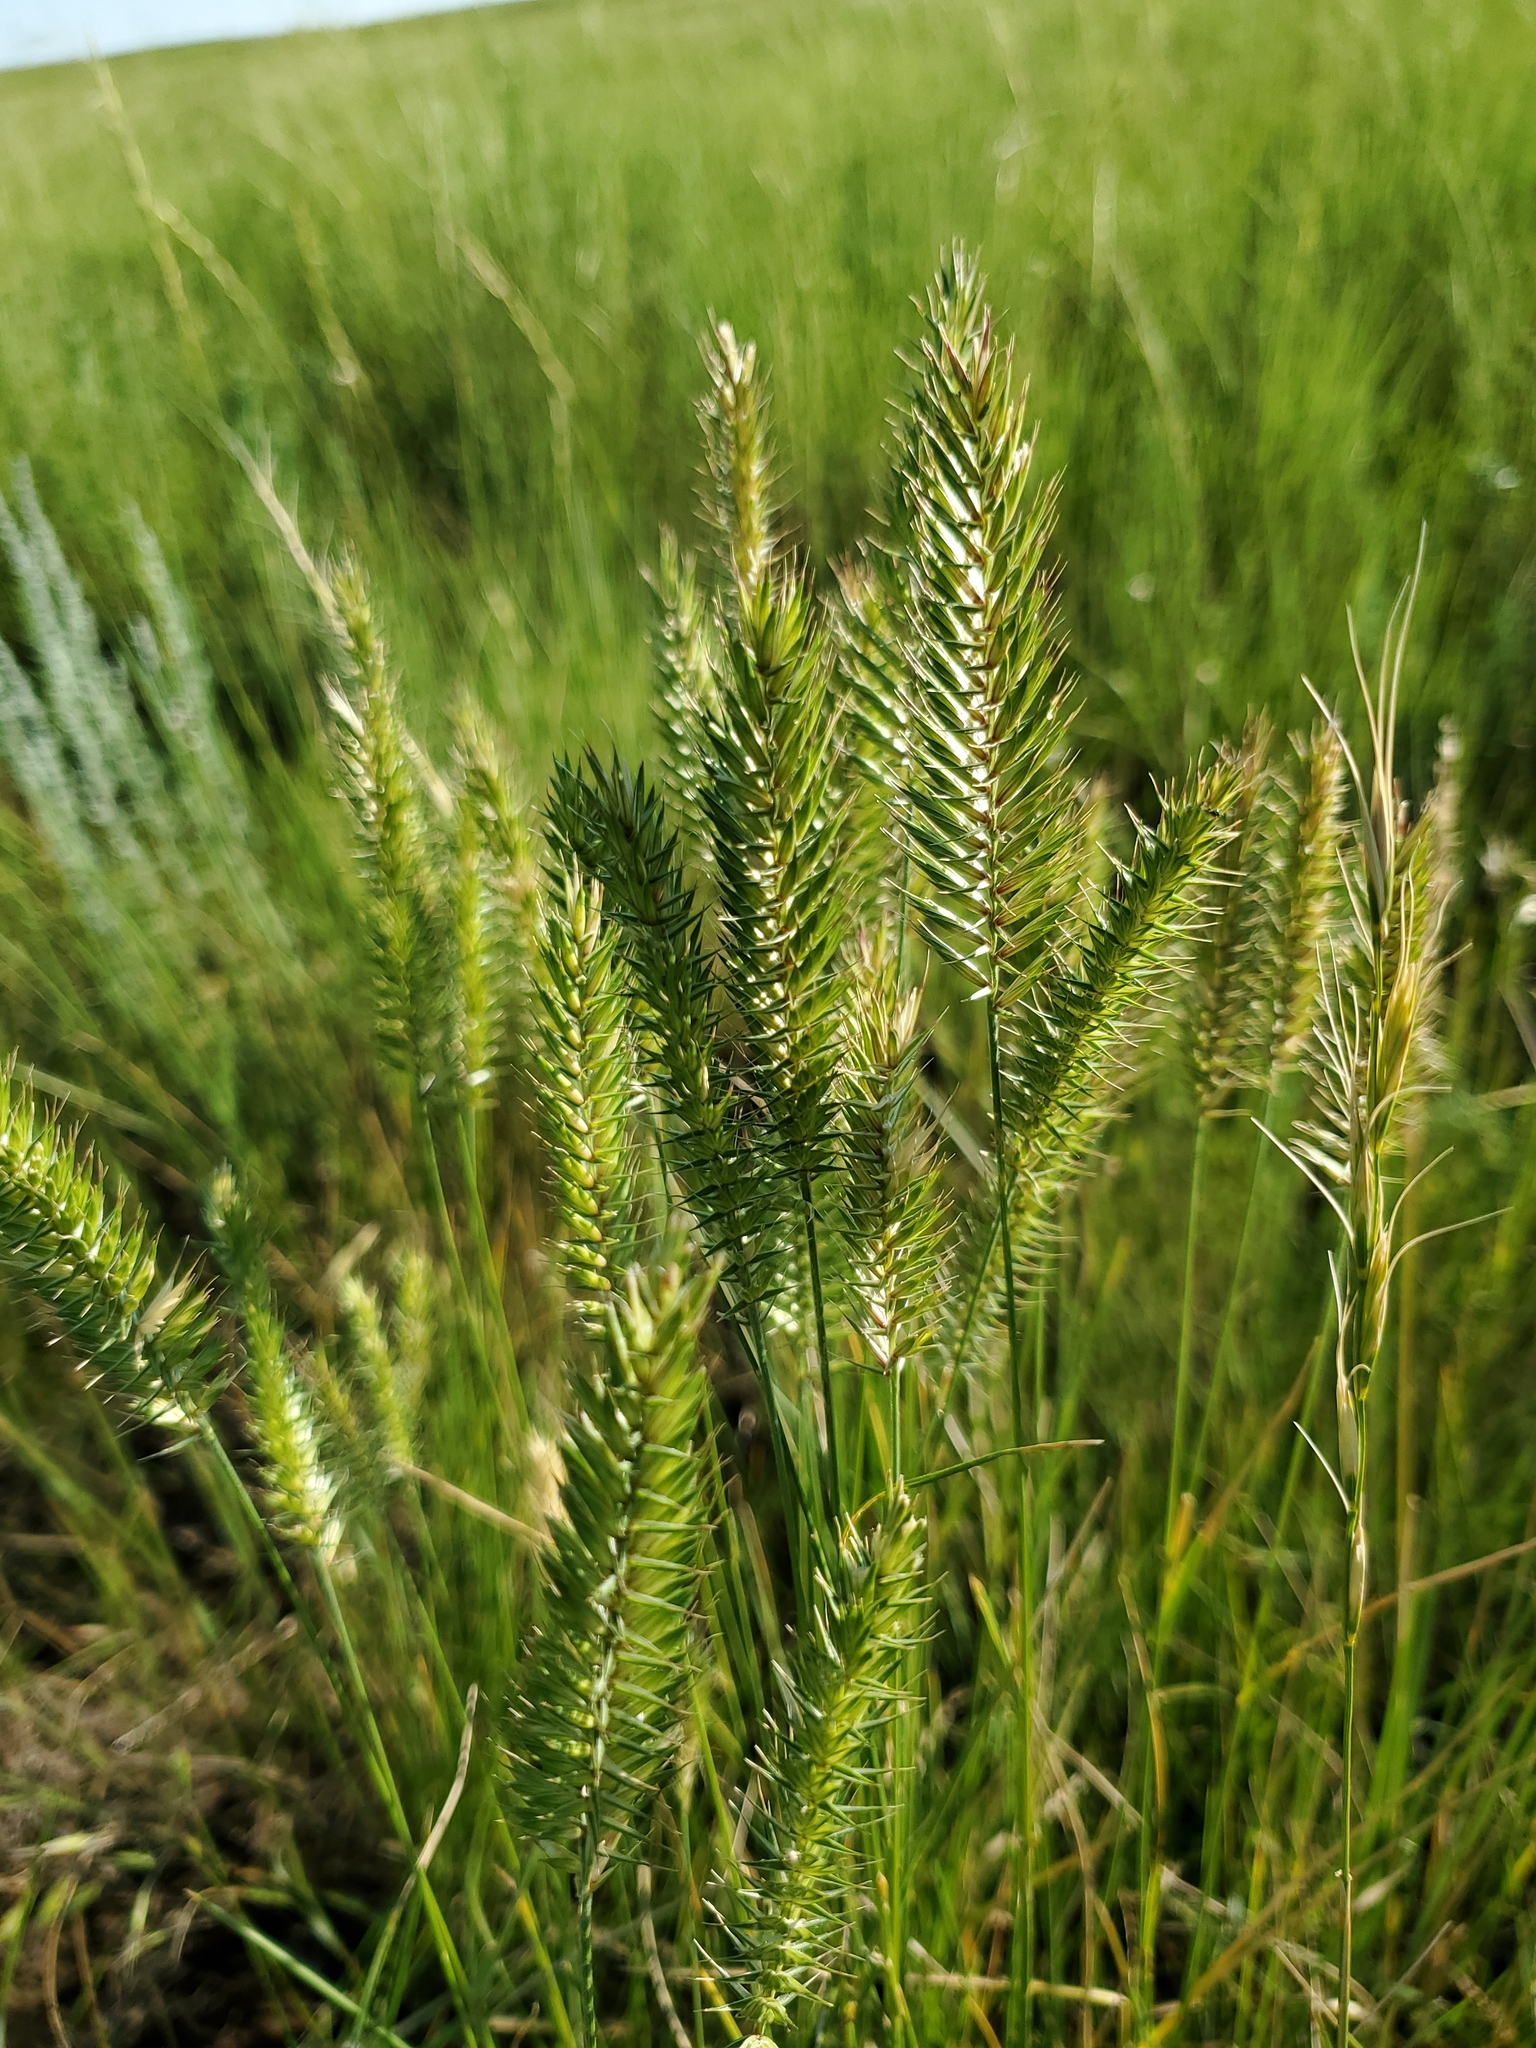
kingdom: Plantae
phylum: Tracheophyta
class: Liliopsida
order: Poales
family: Poaceae
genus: Agropyron
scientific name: Agropyron cristatum
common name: Crested wheatgrass
